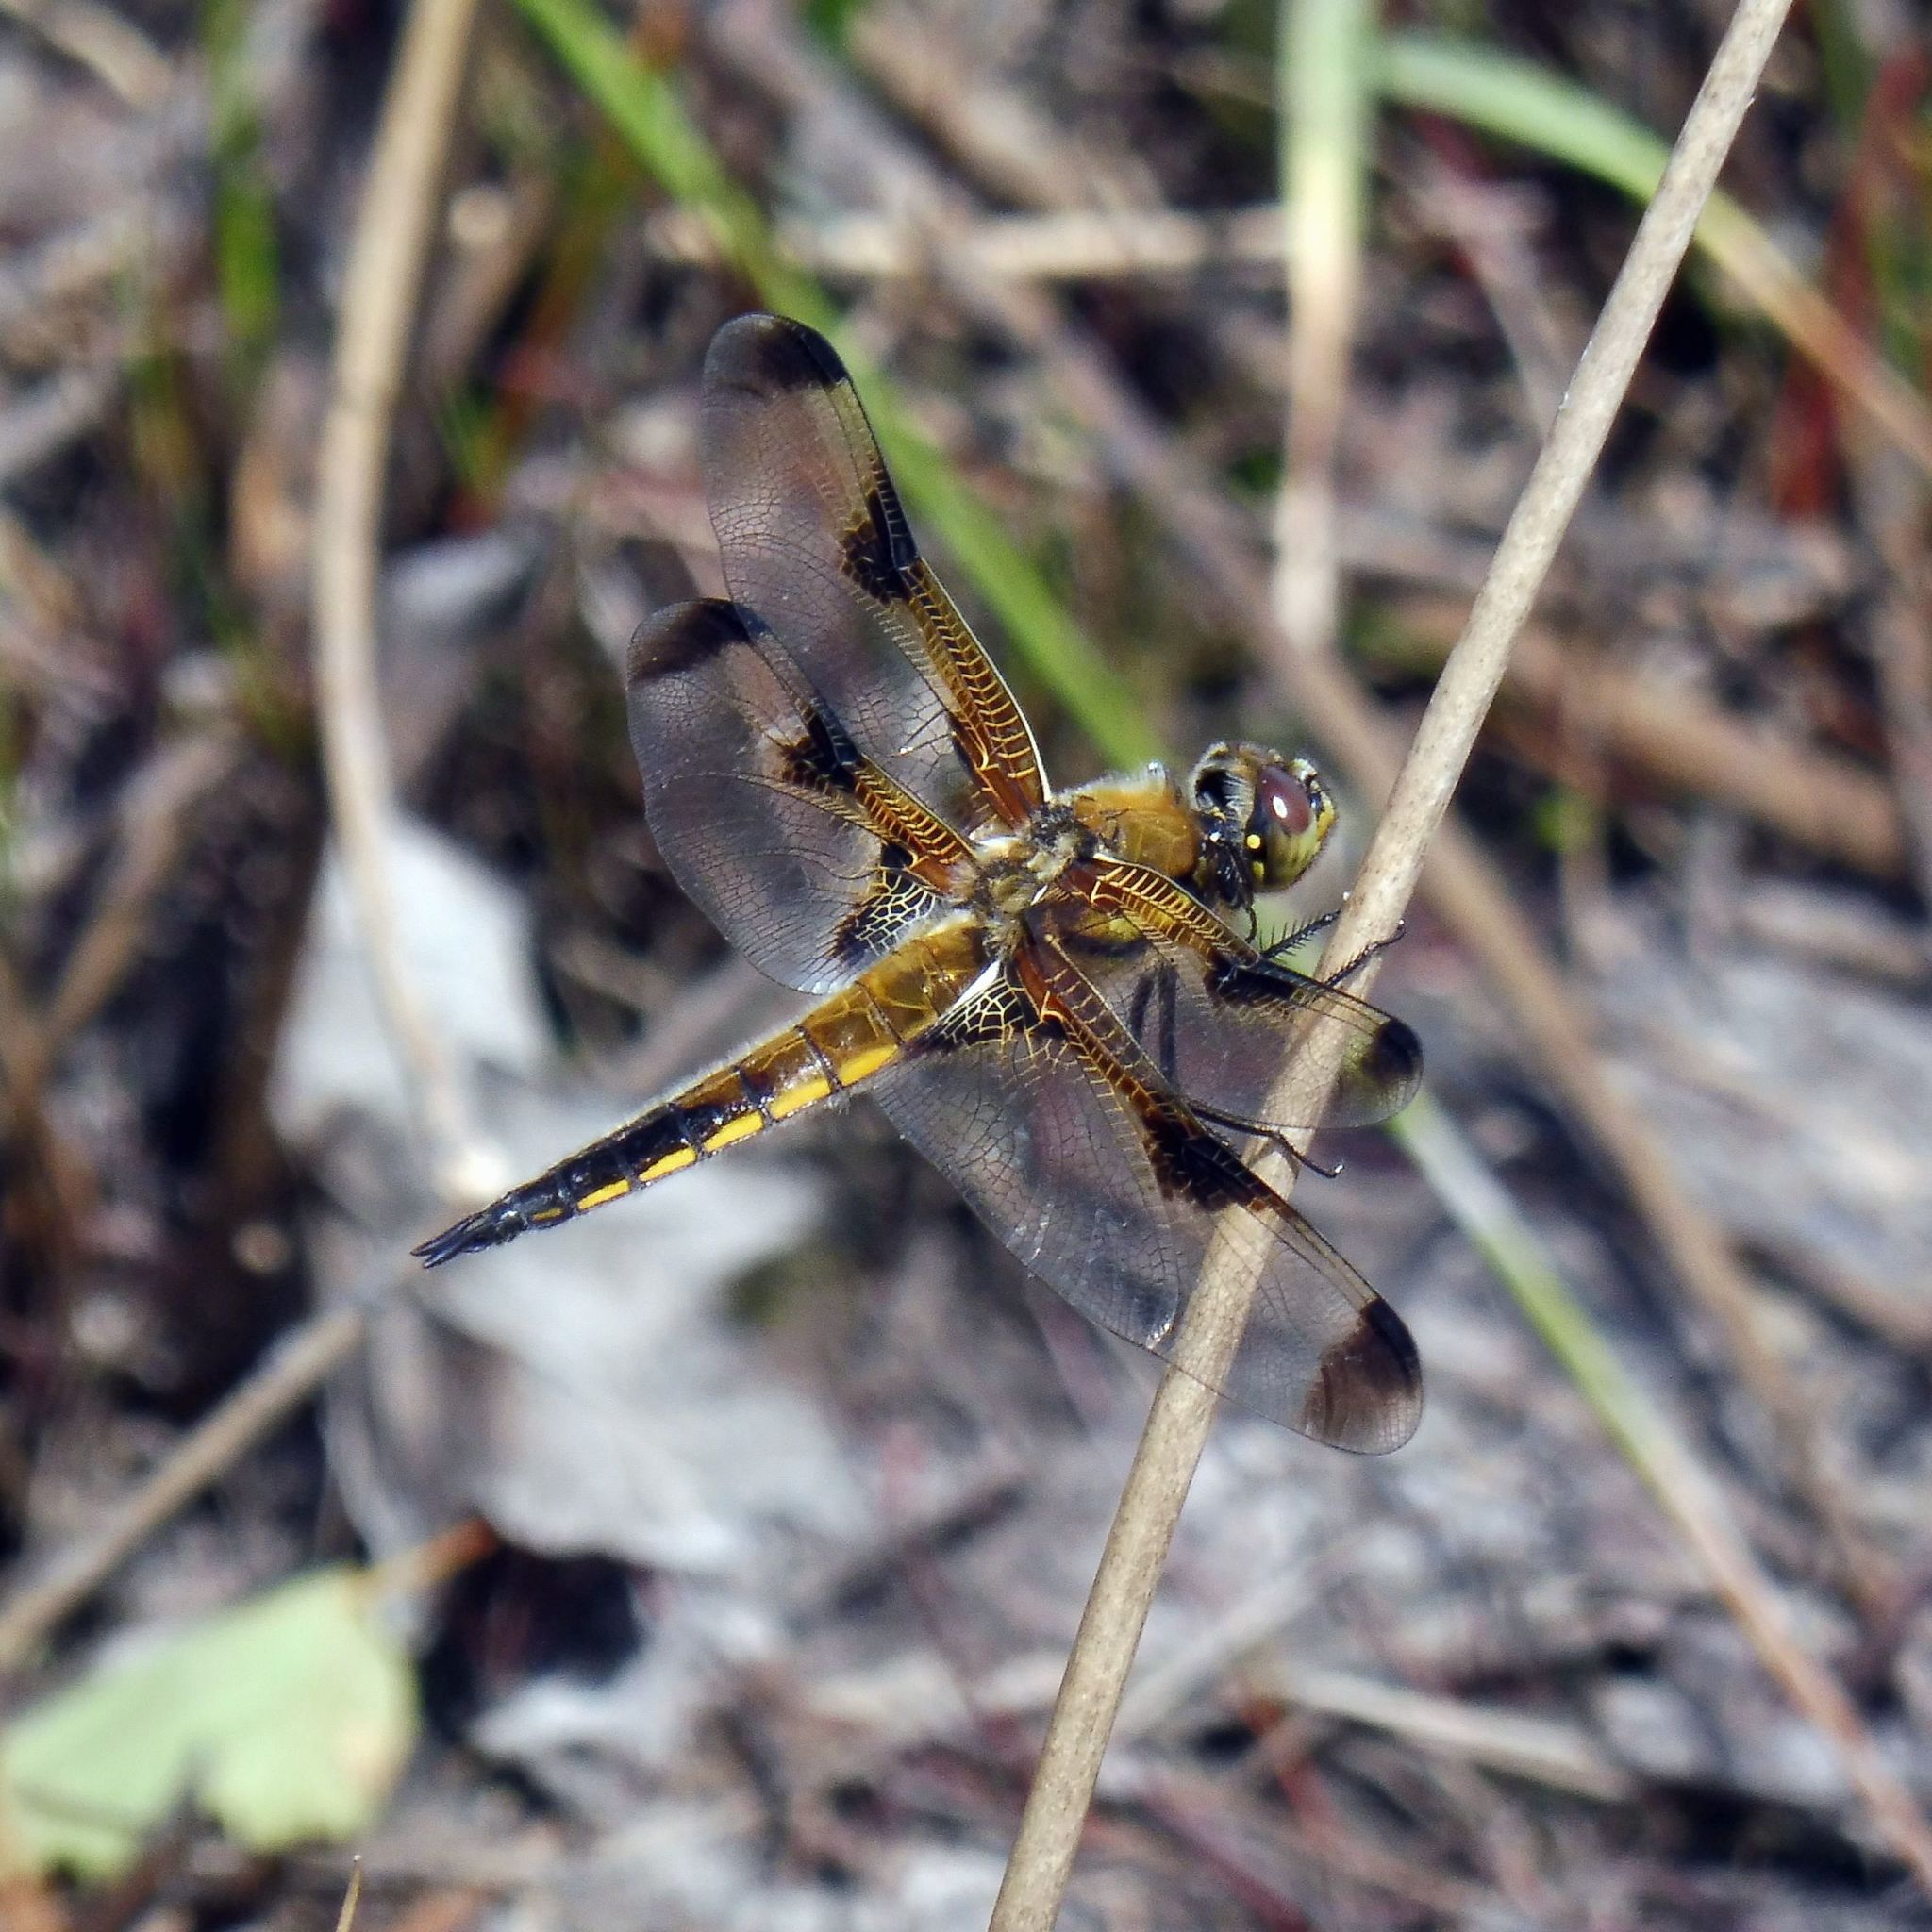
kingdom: Animalia
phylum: Arthropoda
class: Insecta
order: Odonata
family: Libellulidae
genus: Libellula
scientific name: Libellula quadrimaculata
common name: Four-spotted chaser
